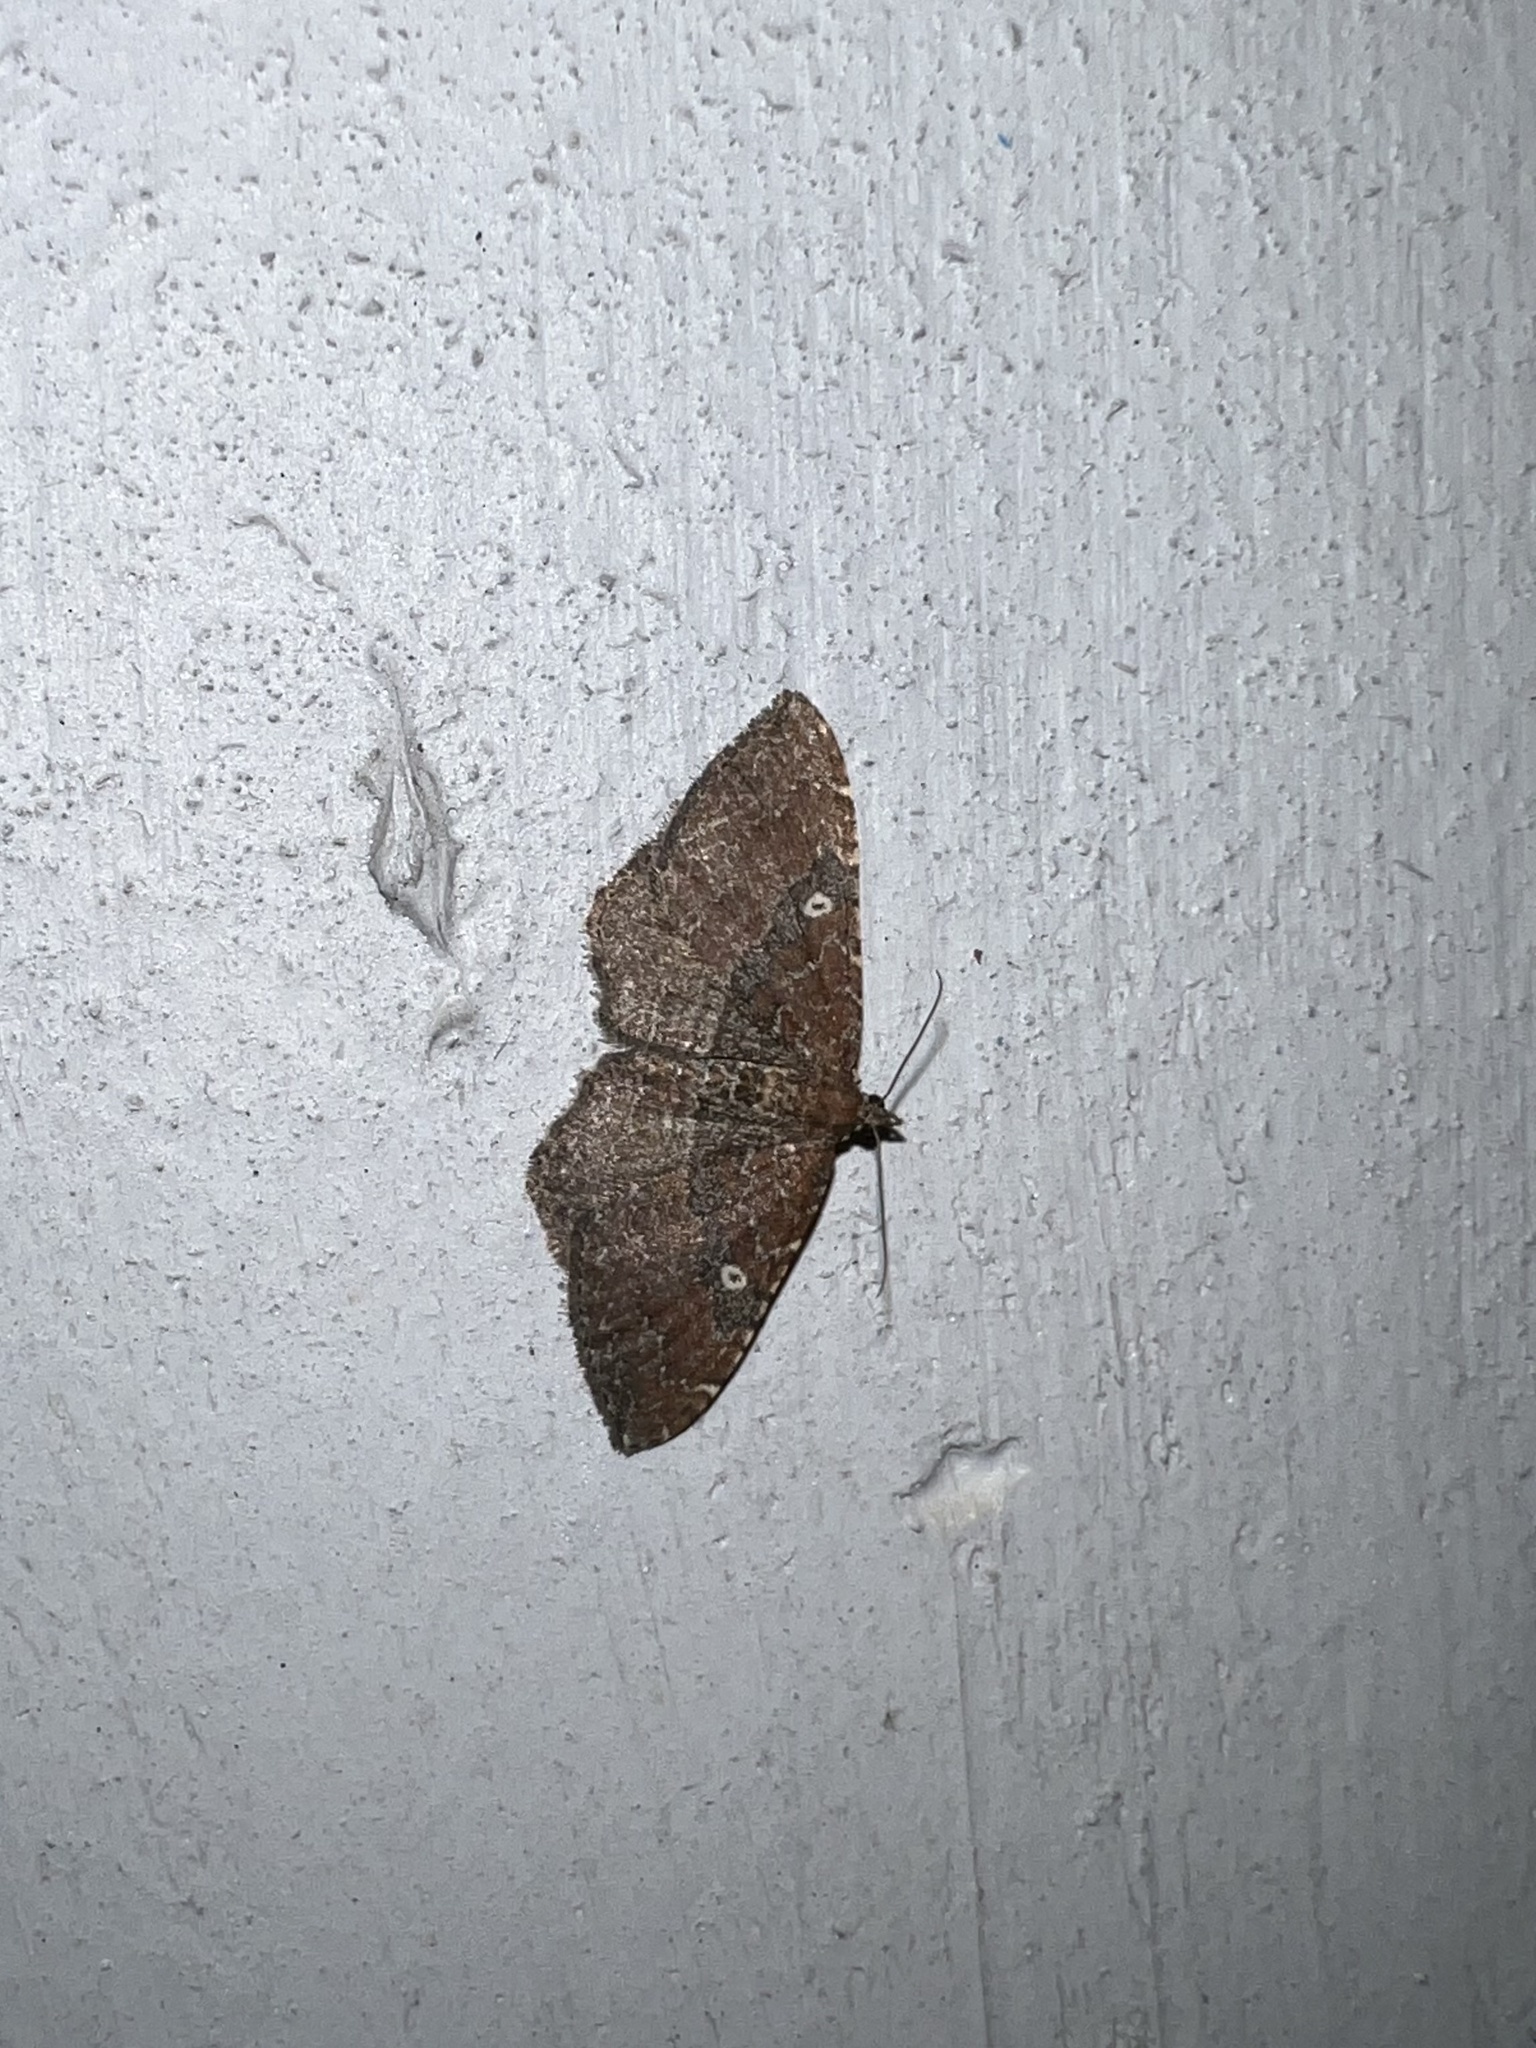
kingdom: Animalia
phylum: Arthropoda
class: Insecta
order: Lepidoptera
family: Geometridae
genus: Orthonama
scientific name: Orthonama obstipata
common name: The gem
